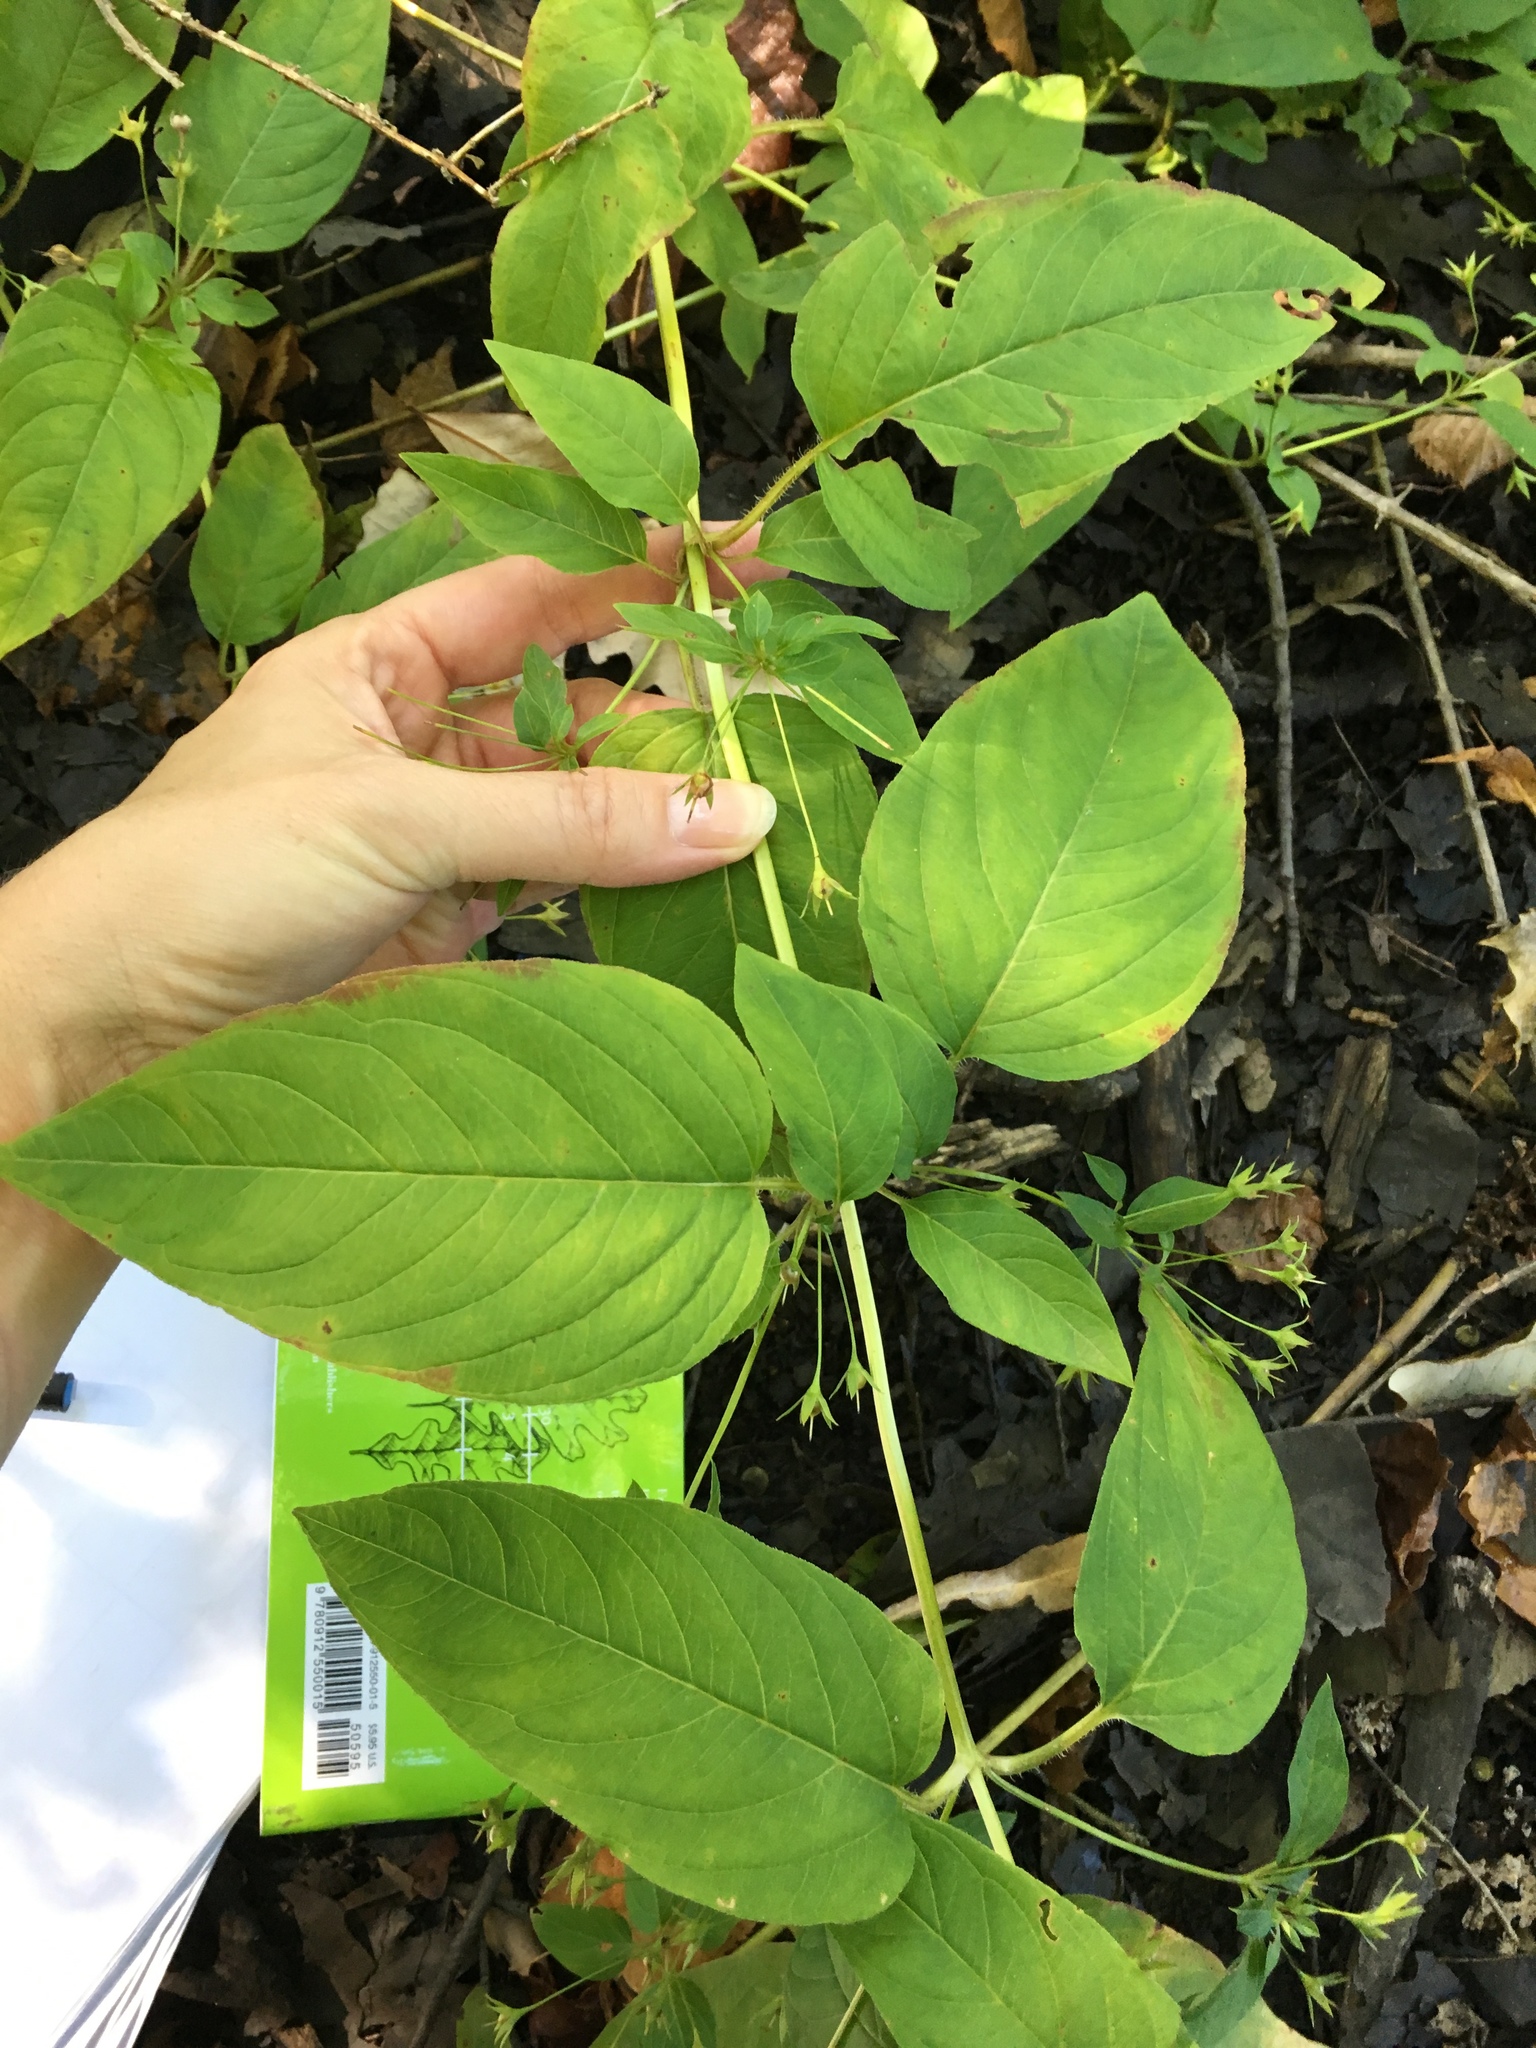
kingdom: Plantae
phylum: Tracheophyta
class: Magnoliopsida
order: Ericales
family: Primulaceae
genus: Lysimachia
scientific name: Lysimachia ciliata
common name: Fringed loosestrife
